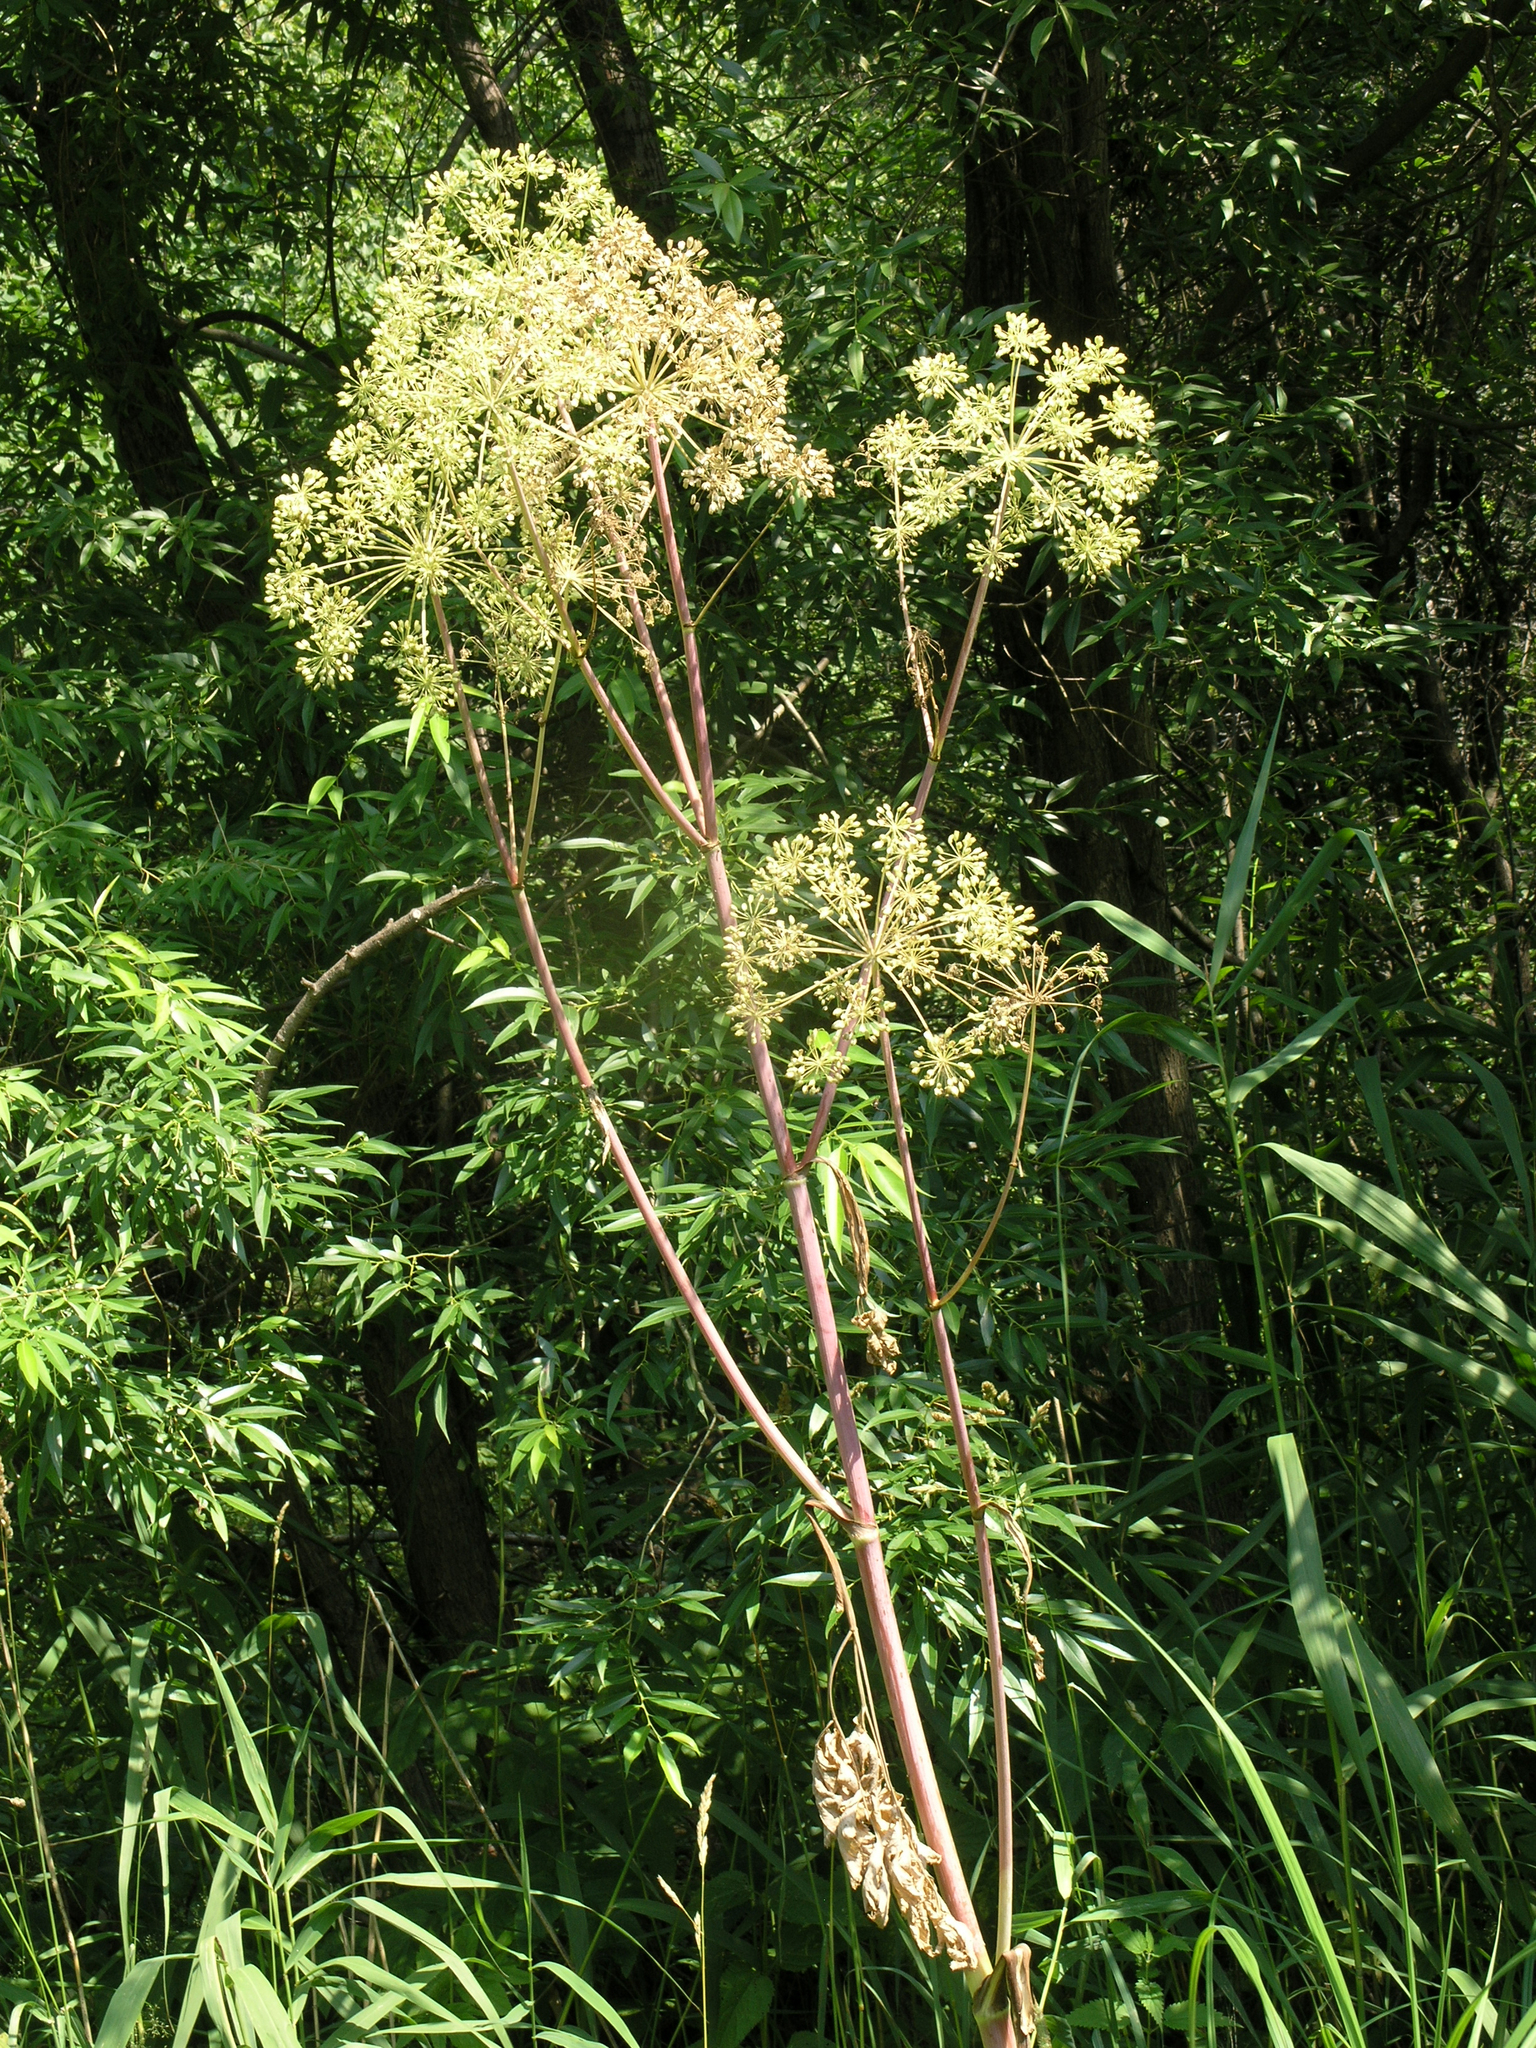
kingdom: Plantae
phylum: Tracheophyta
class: Magnoliopsida
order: Apiales
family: Apiaceae
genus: Angelica
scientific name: Angelica decurrens
